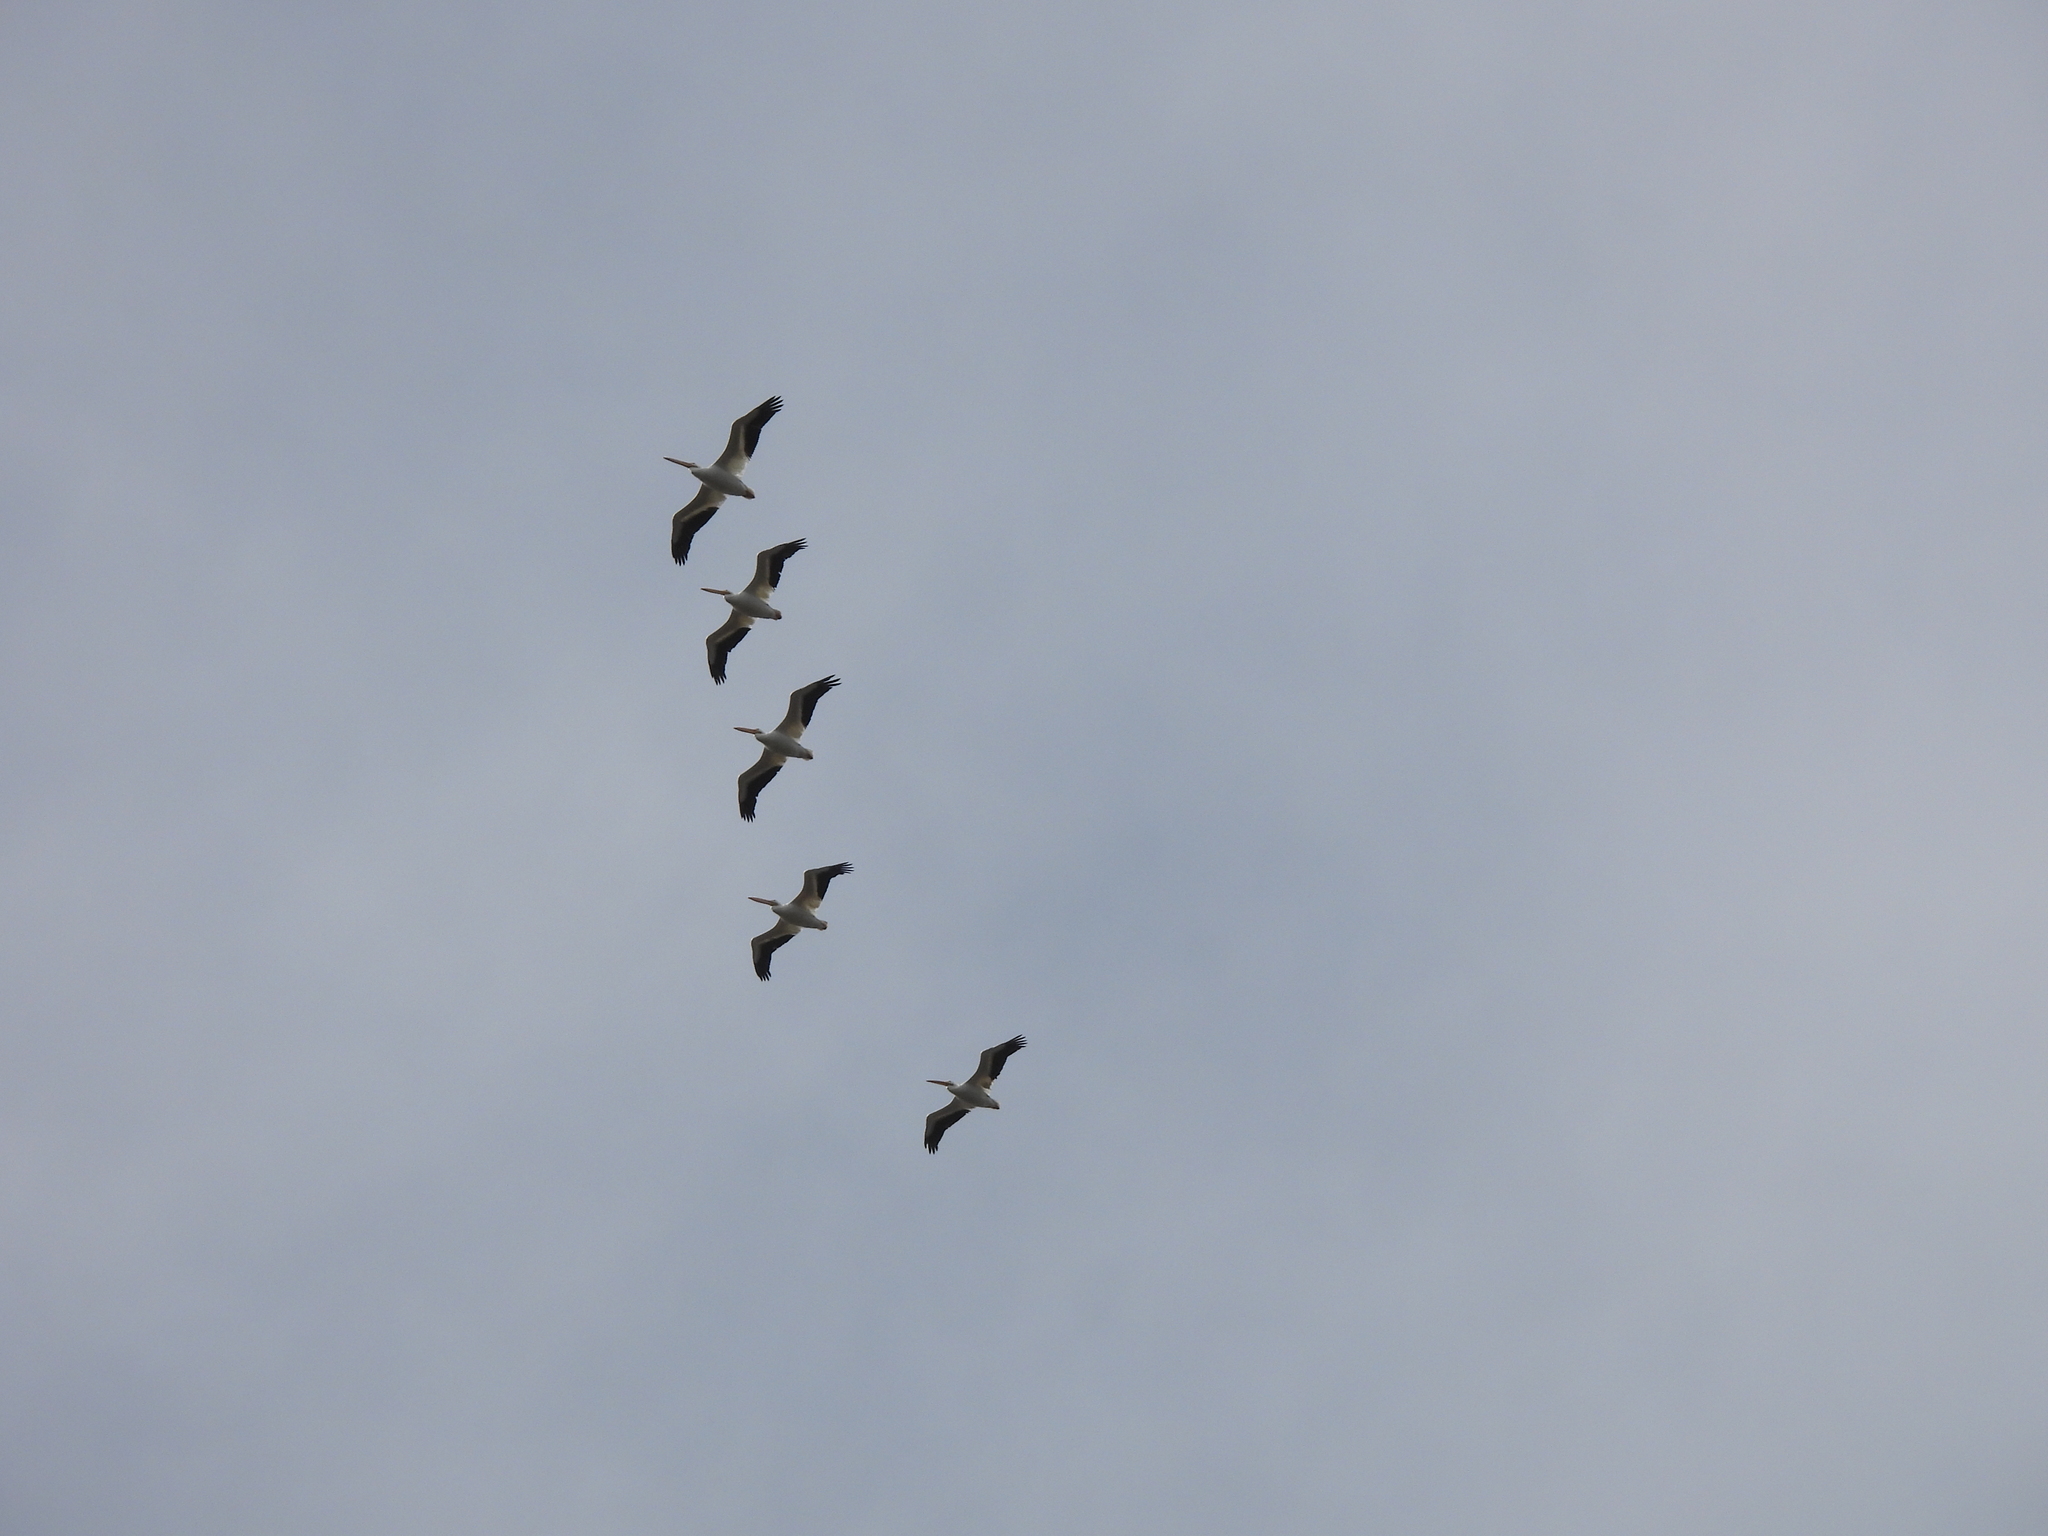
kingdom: Animalia
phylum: Chordata
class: Aves
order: Pelecaniformes
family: Pelecanidae
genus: Pelecanus
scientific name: Pelecanus erythrorhynchos
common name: American white pelican
